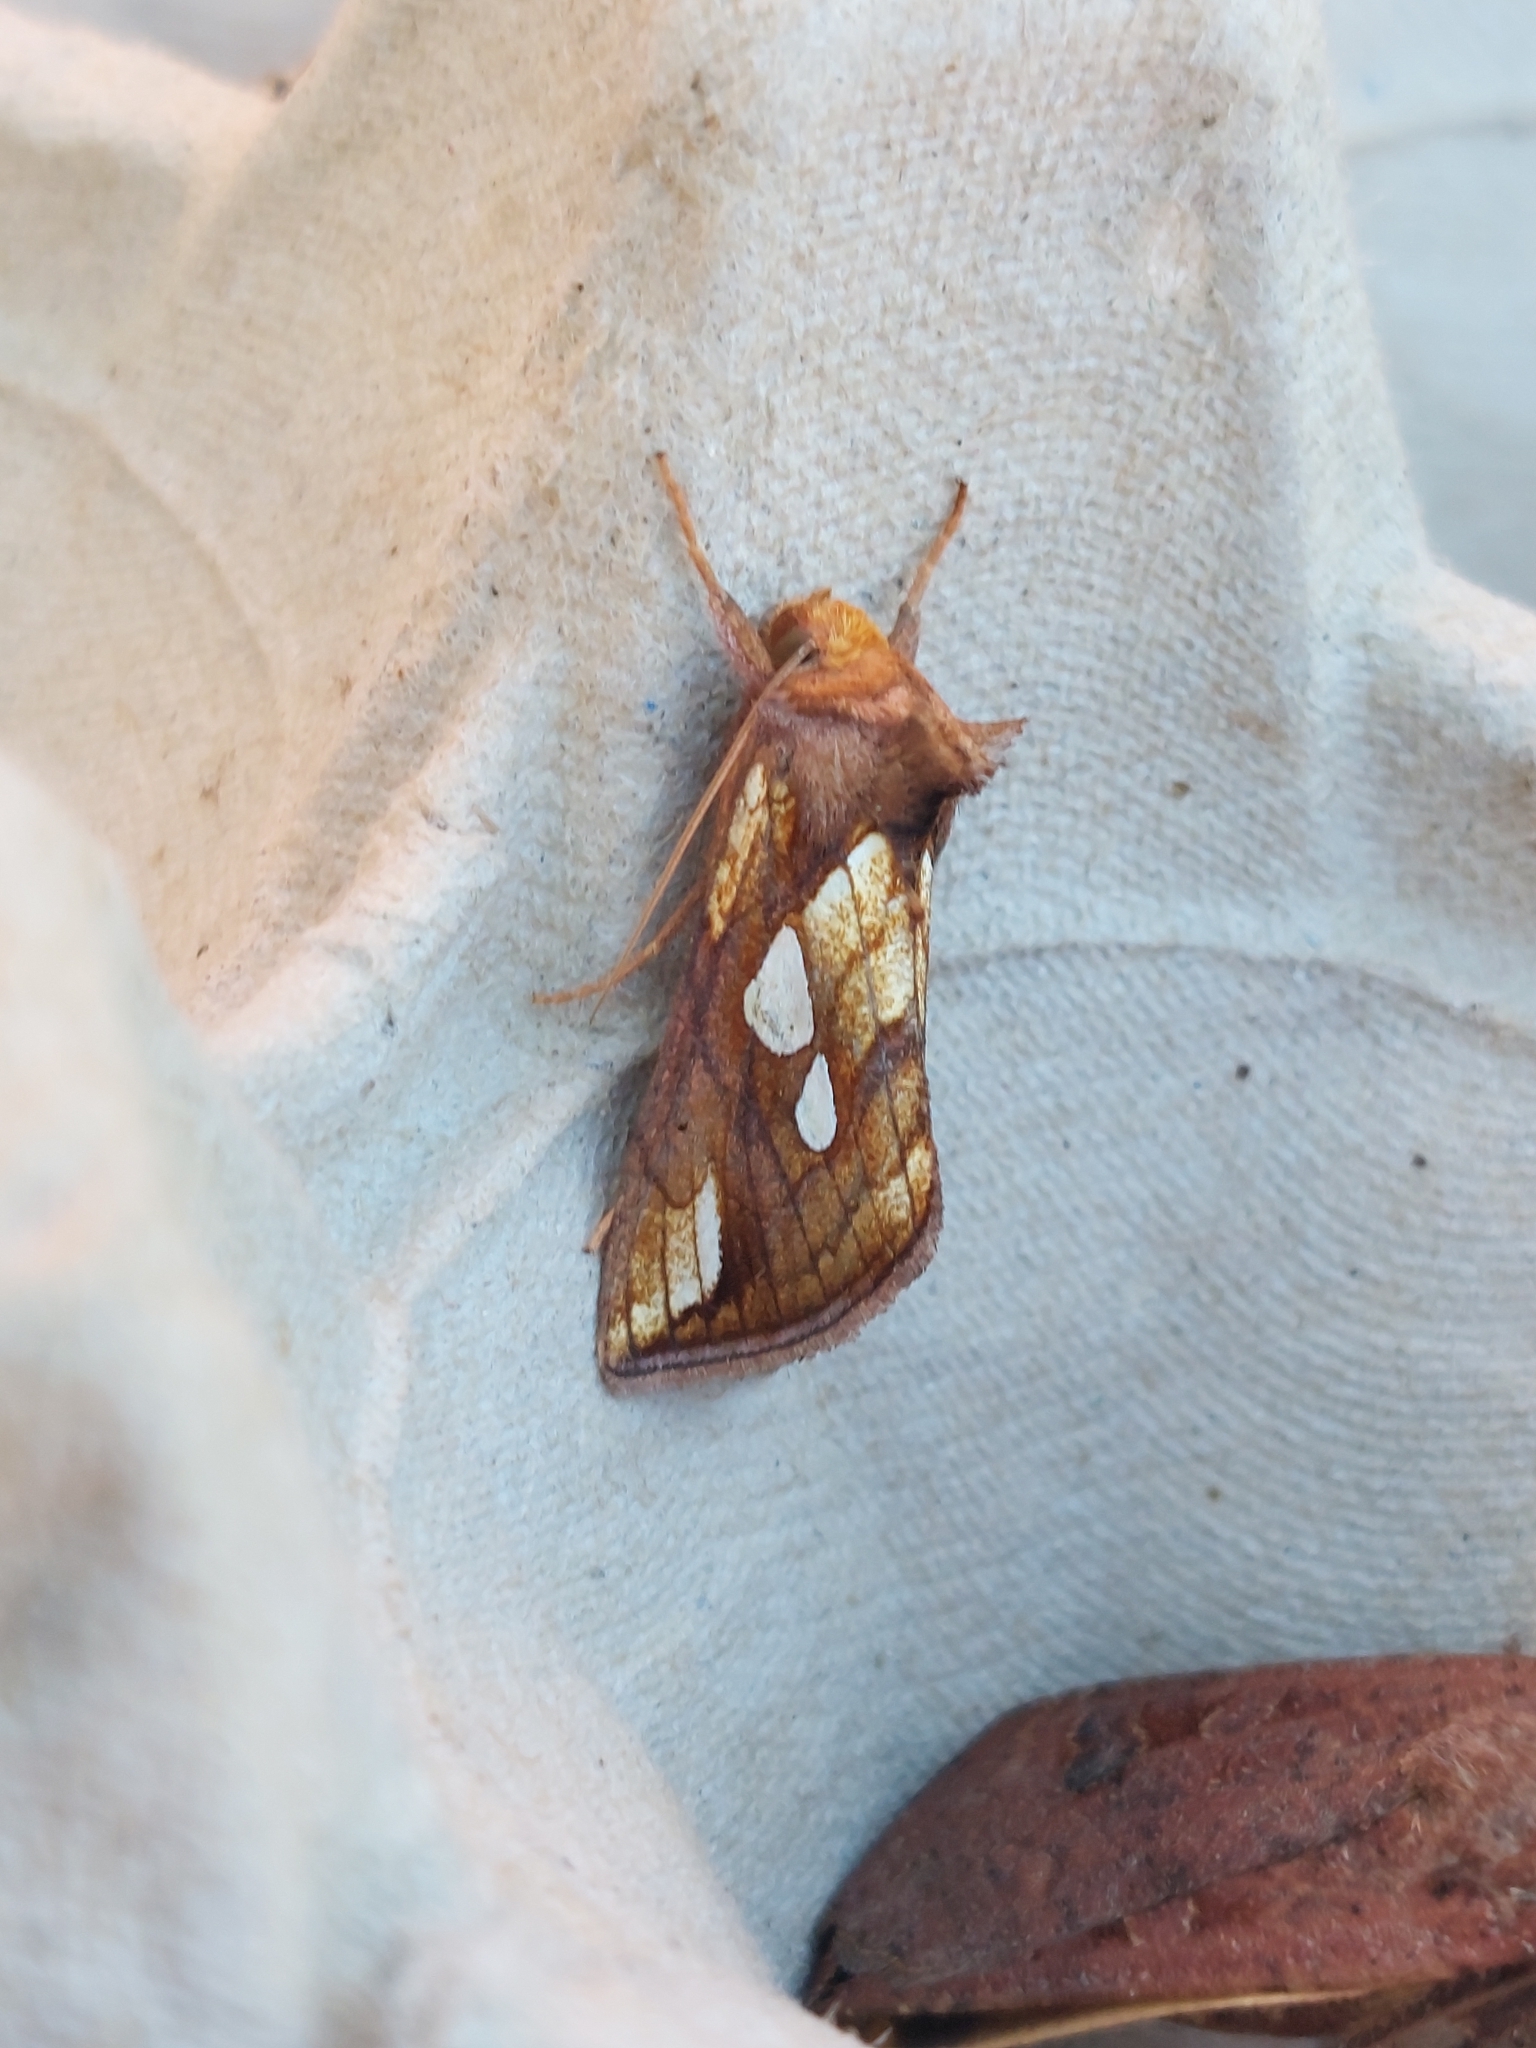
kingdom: Animalia
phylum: Arthropoda
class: Insecta
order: Lepidoptera
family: Noctuidae
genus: Plusia
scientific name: Plusia festucae
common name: Gold spot
